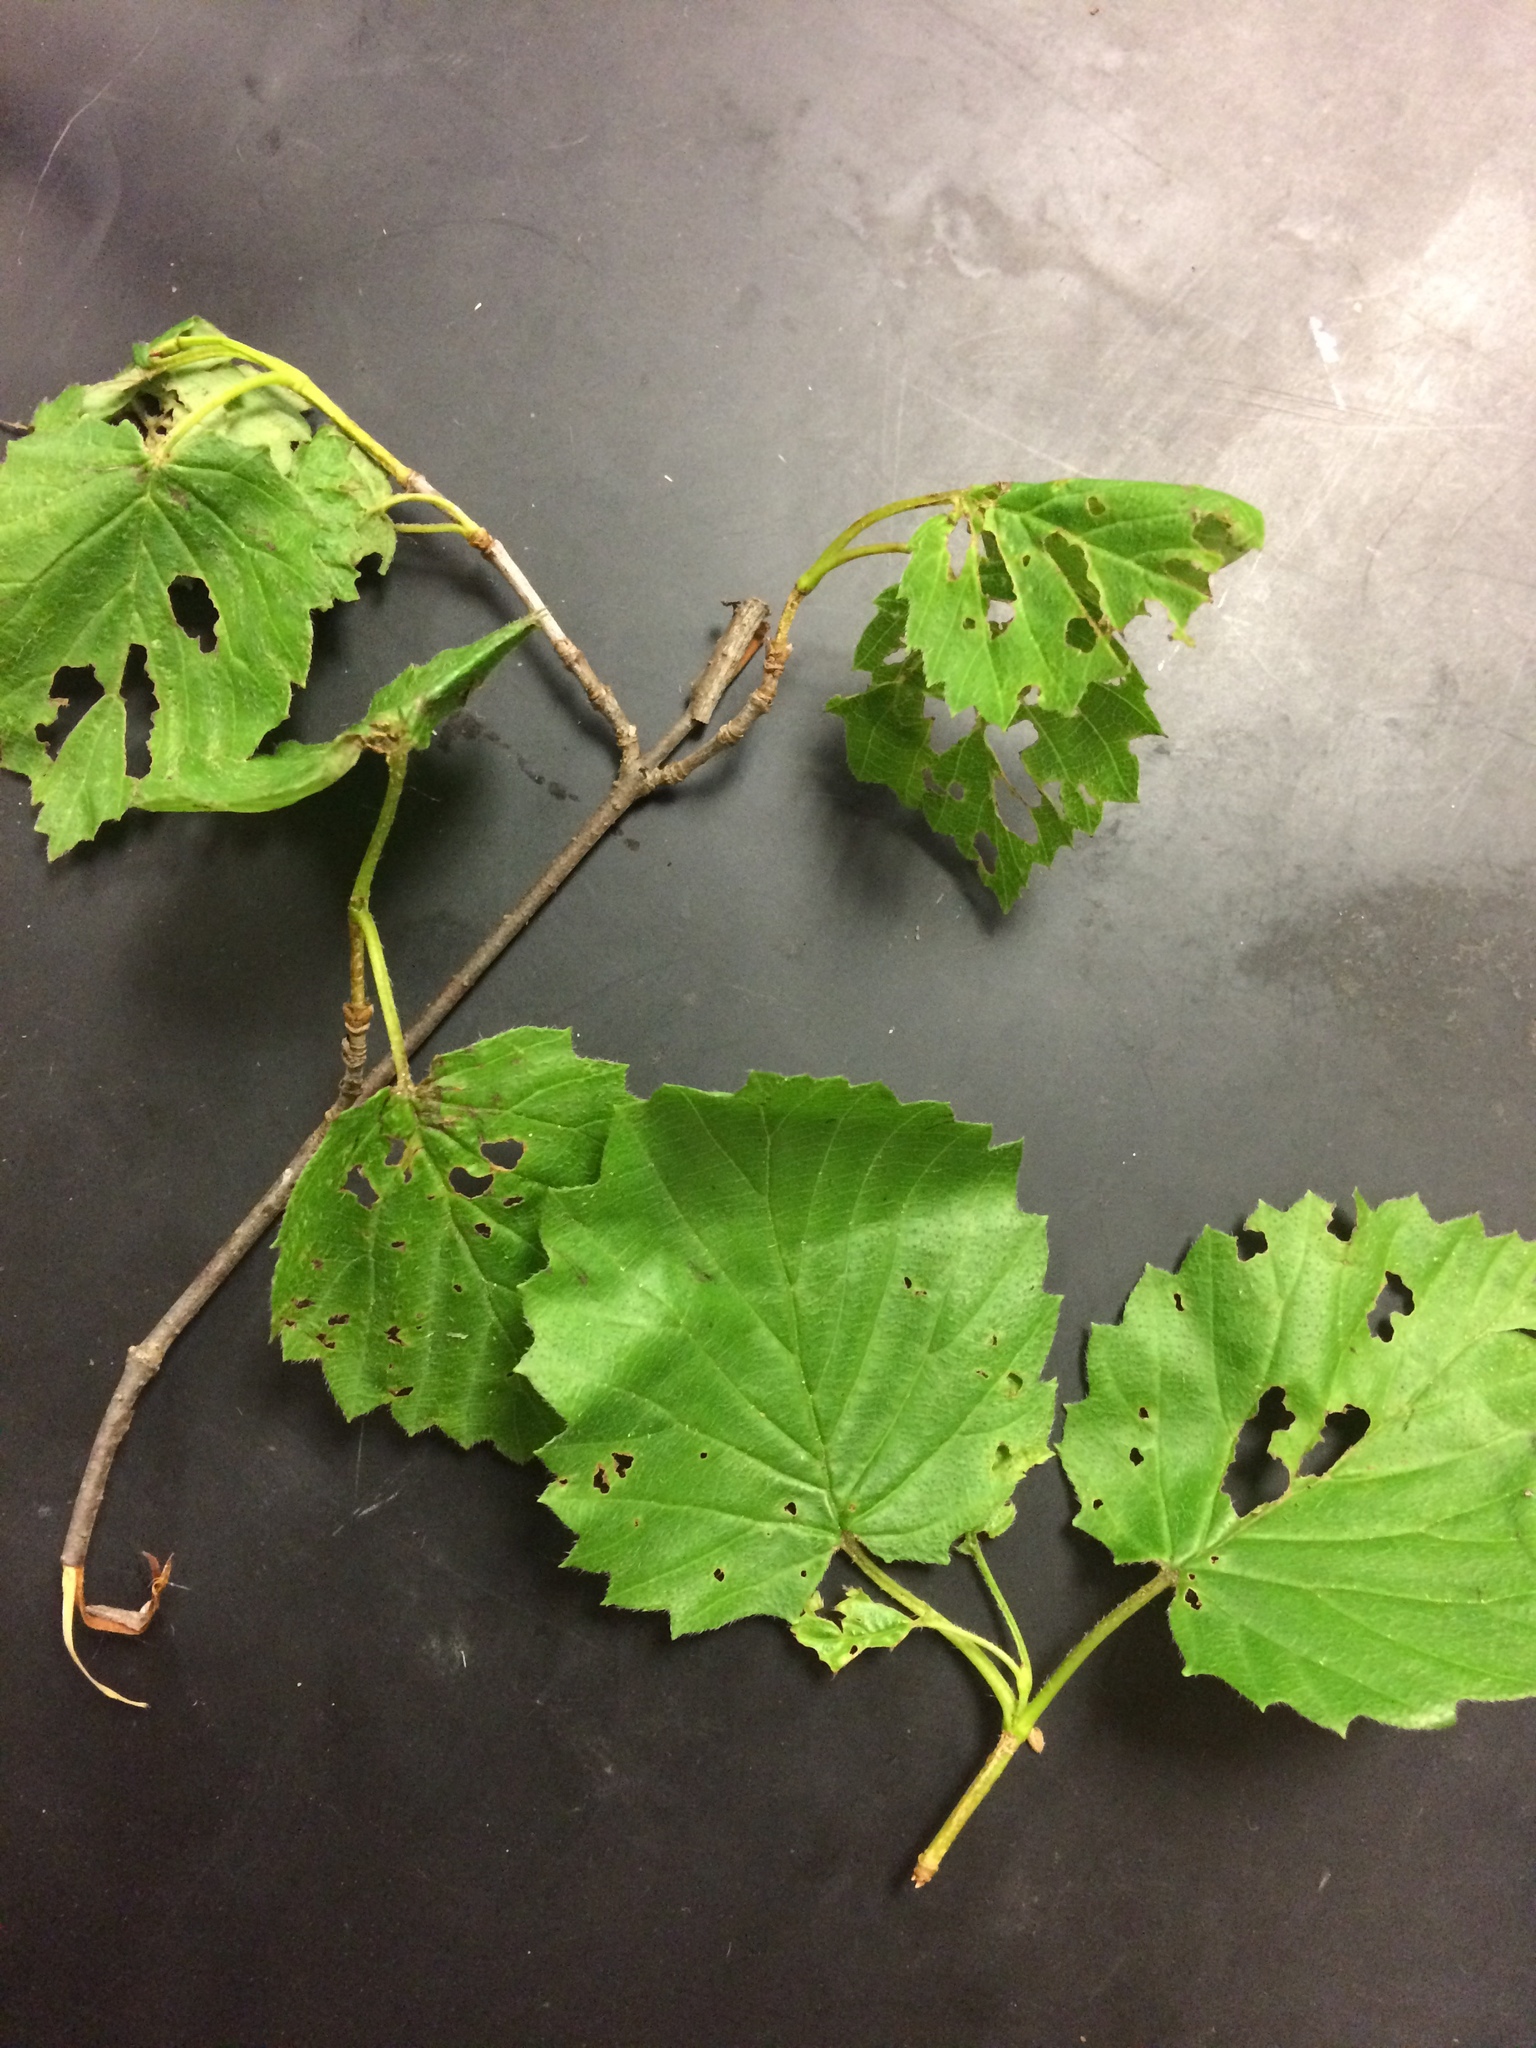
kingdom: Plantae
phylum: Tracheophyta
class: Magnoliopsida
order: Dipsacales
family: Viburnaceae
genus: Viburnum
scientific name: Viburnum dentatum
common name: Arrow-wood
